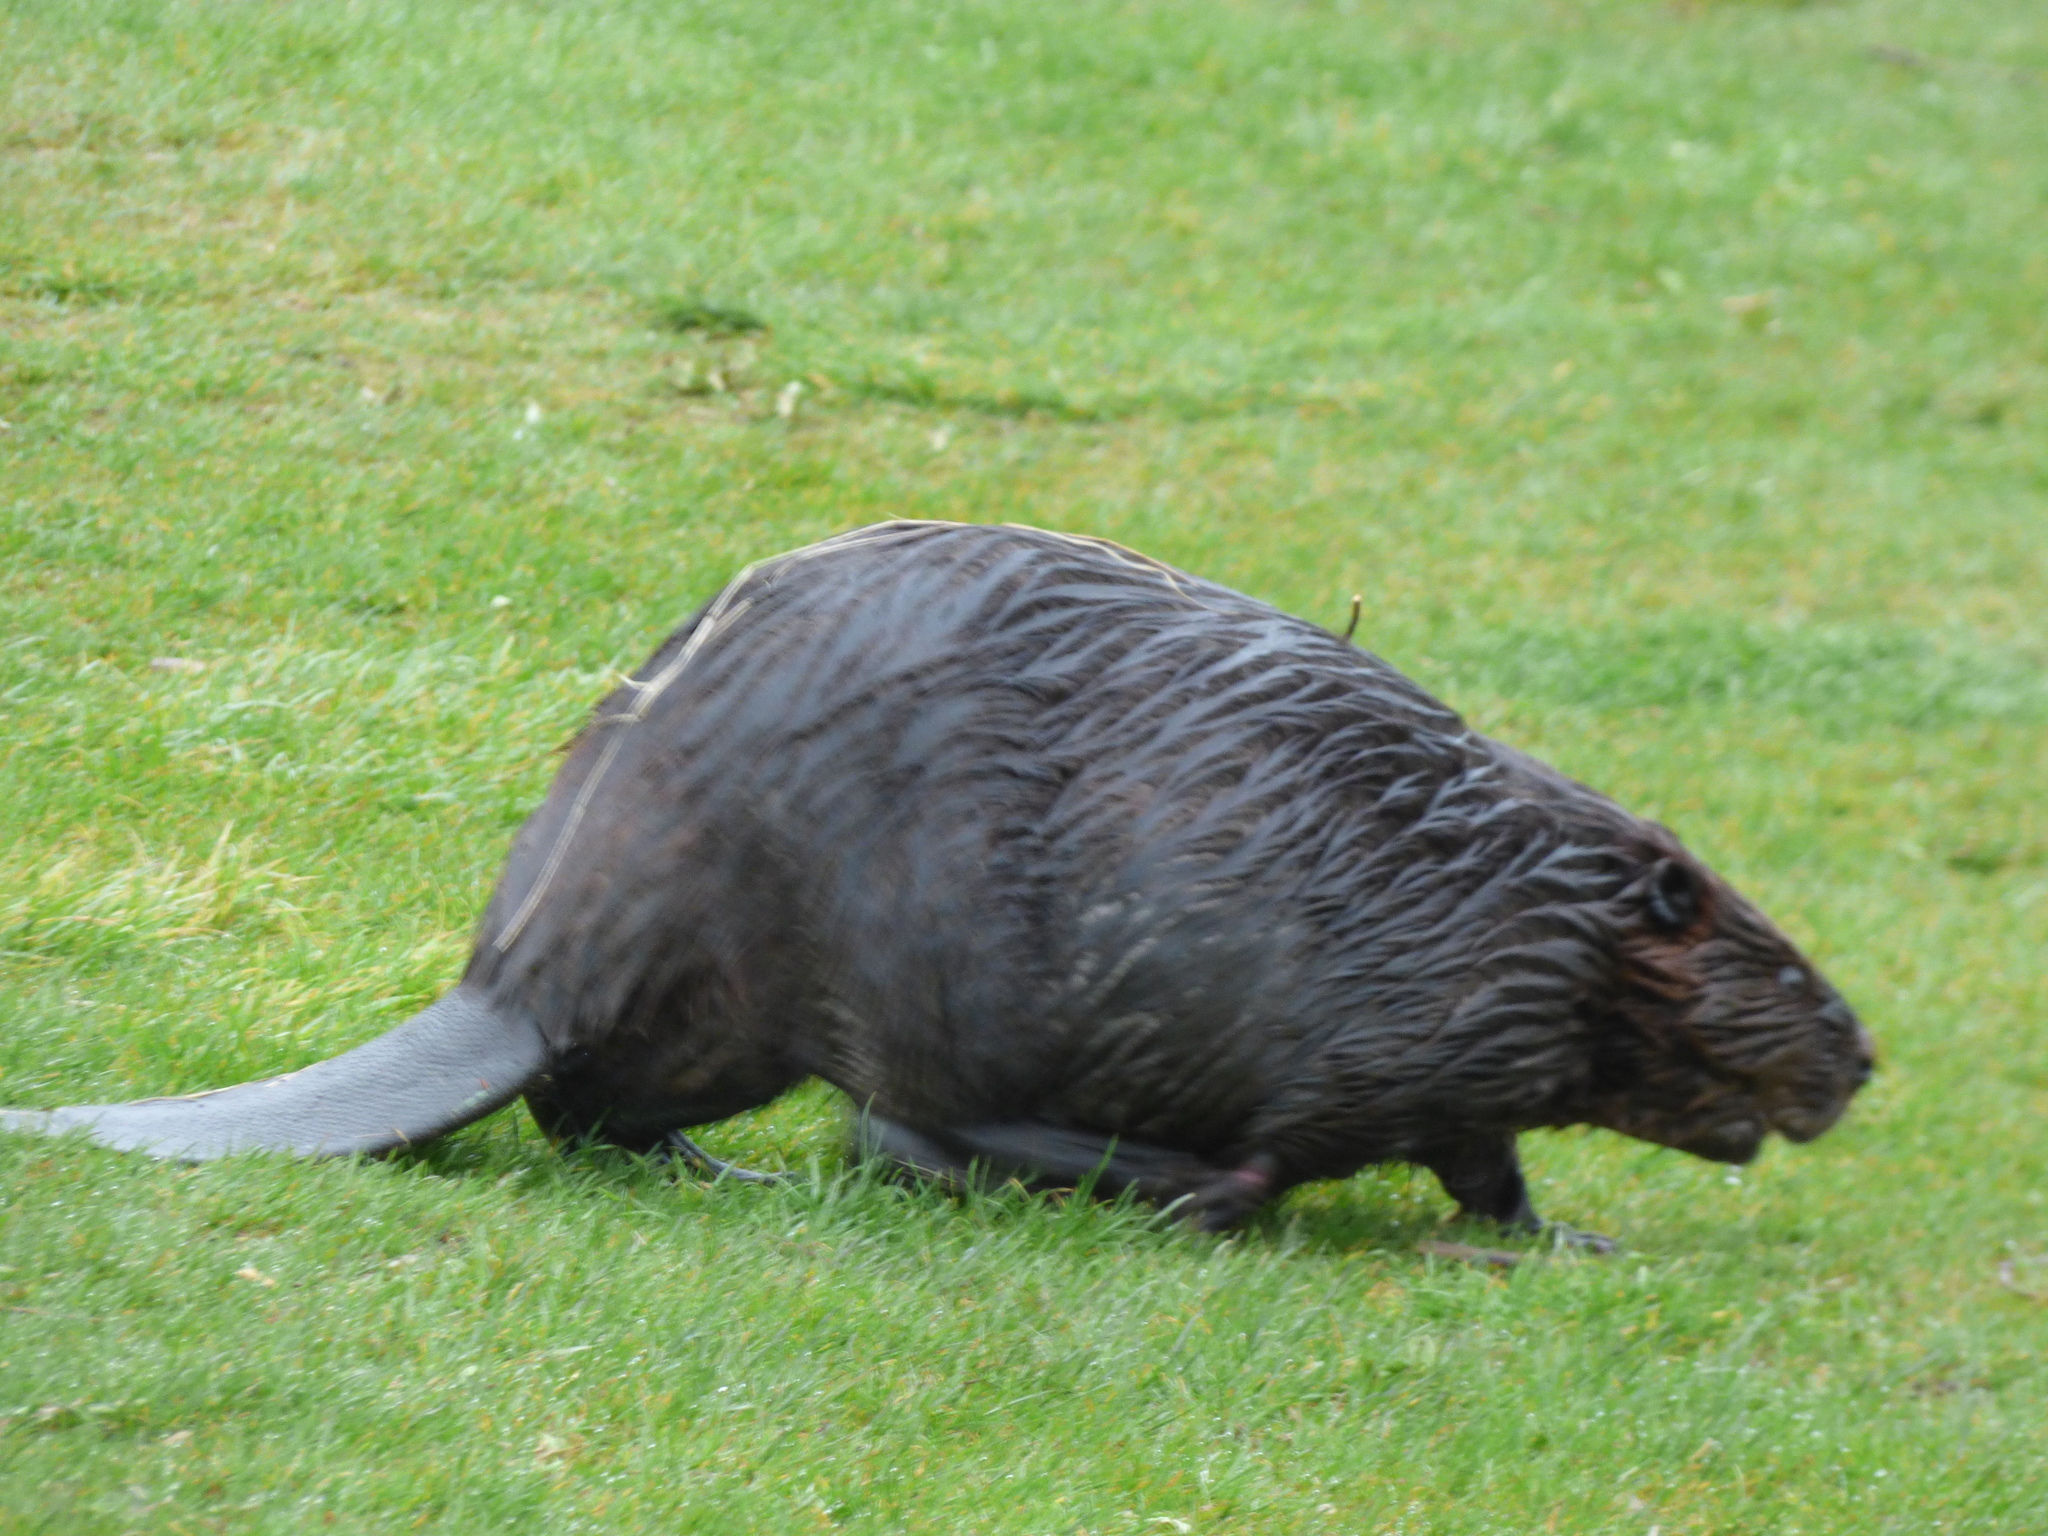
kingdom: Animalia
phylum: Chordata
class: Mammalia
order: Rodentia
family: Castoridae
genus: Castor
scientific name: Castor canadensis
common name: American beaver
